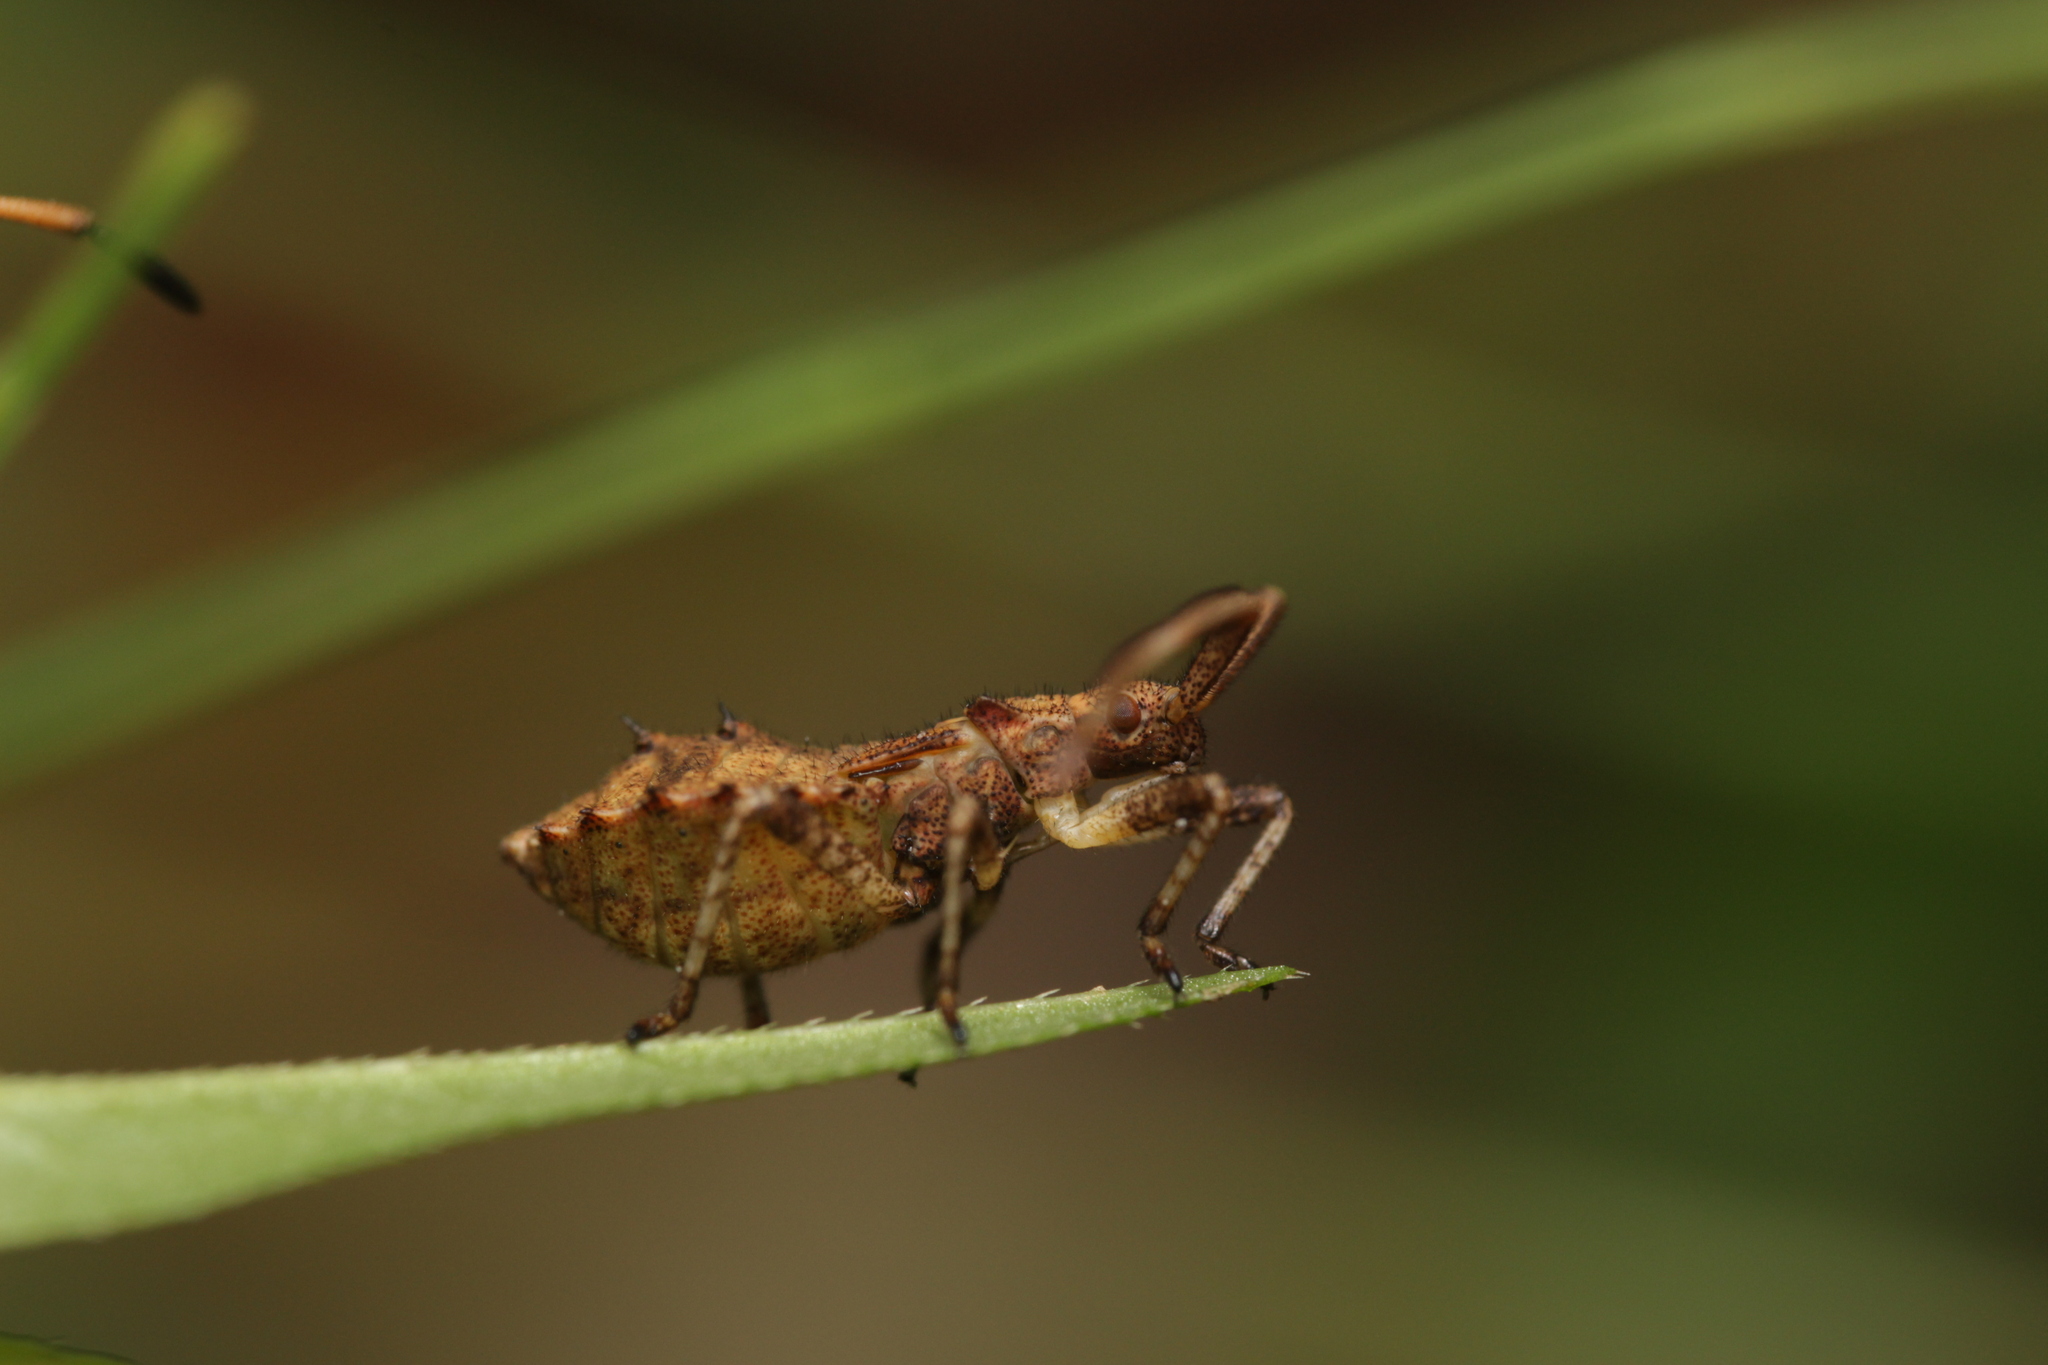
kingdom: Animalia
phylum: Arthropoda
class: Insecta
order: Hemiptera
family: Coreidae
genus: Coreus
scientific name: Coreus marginatus
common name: Dock bug
